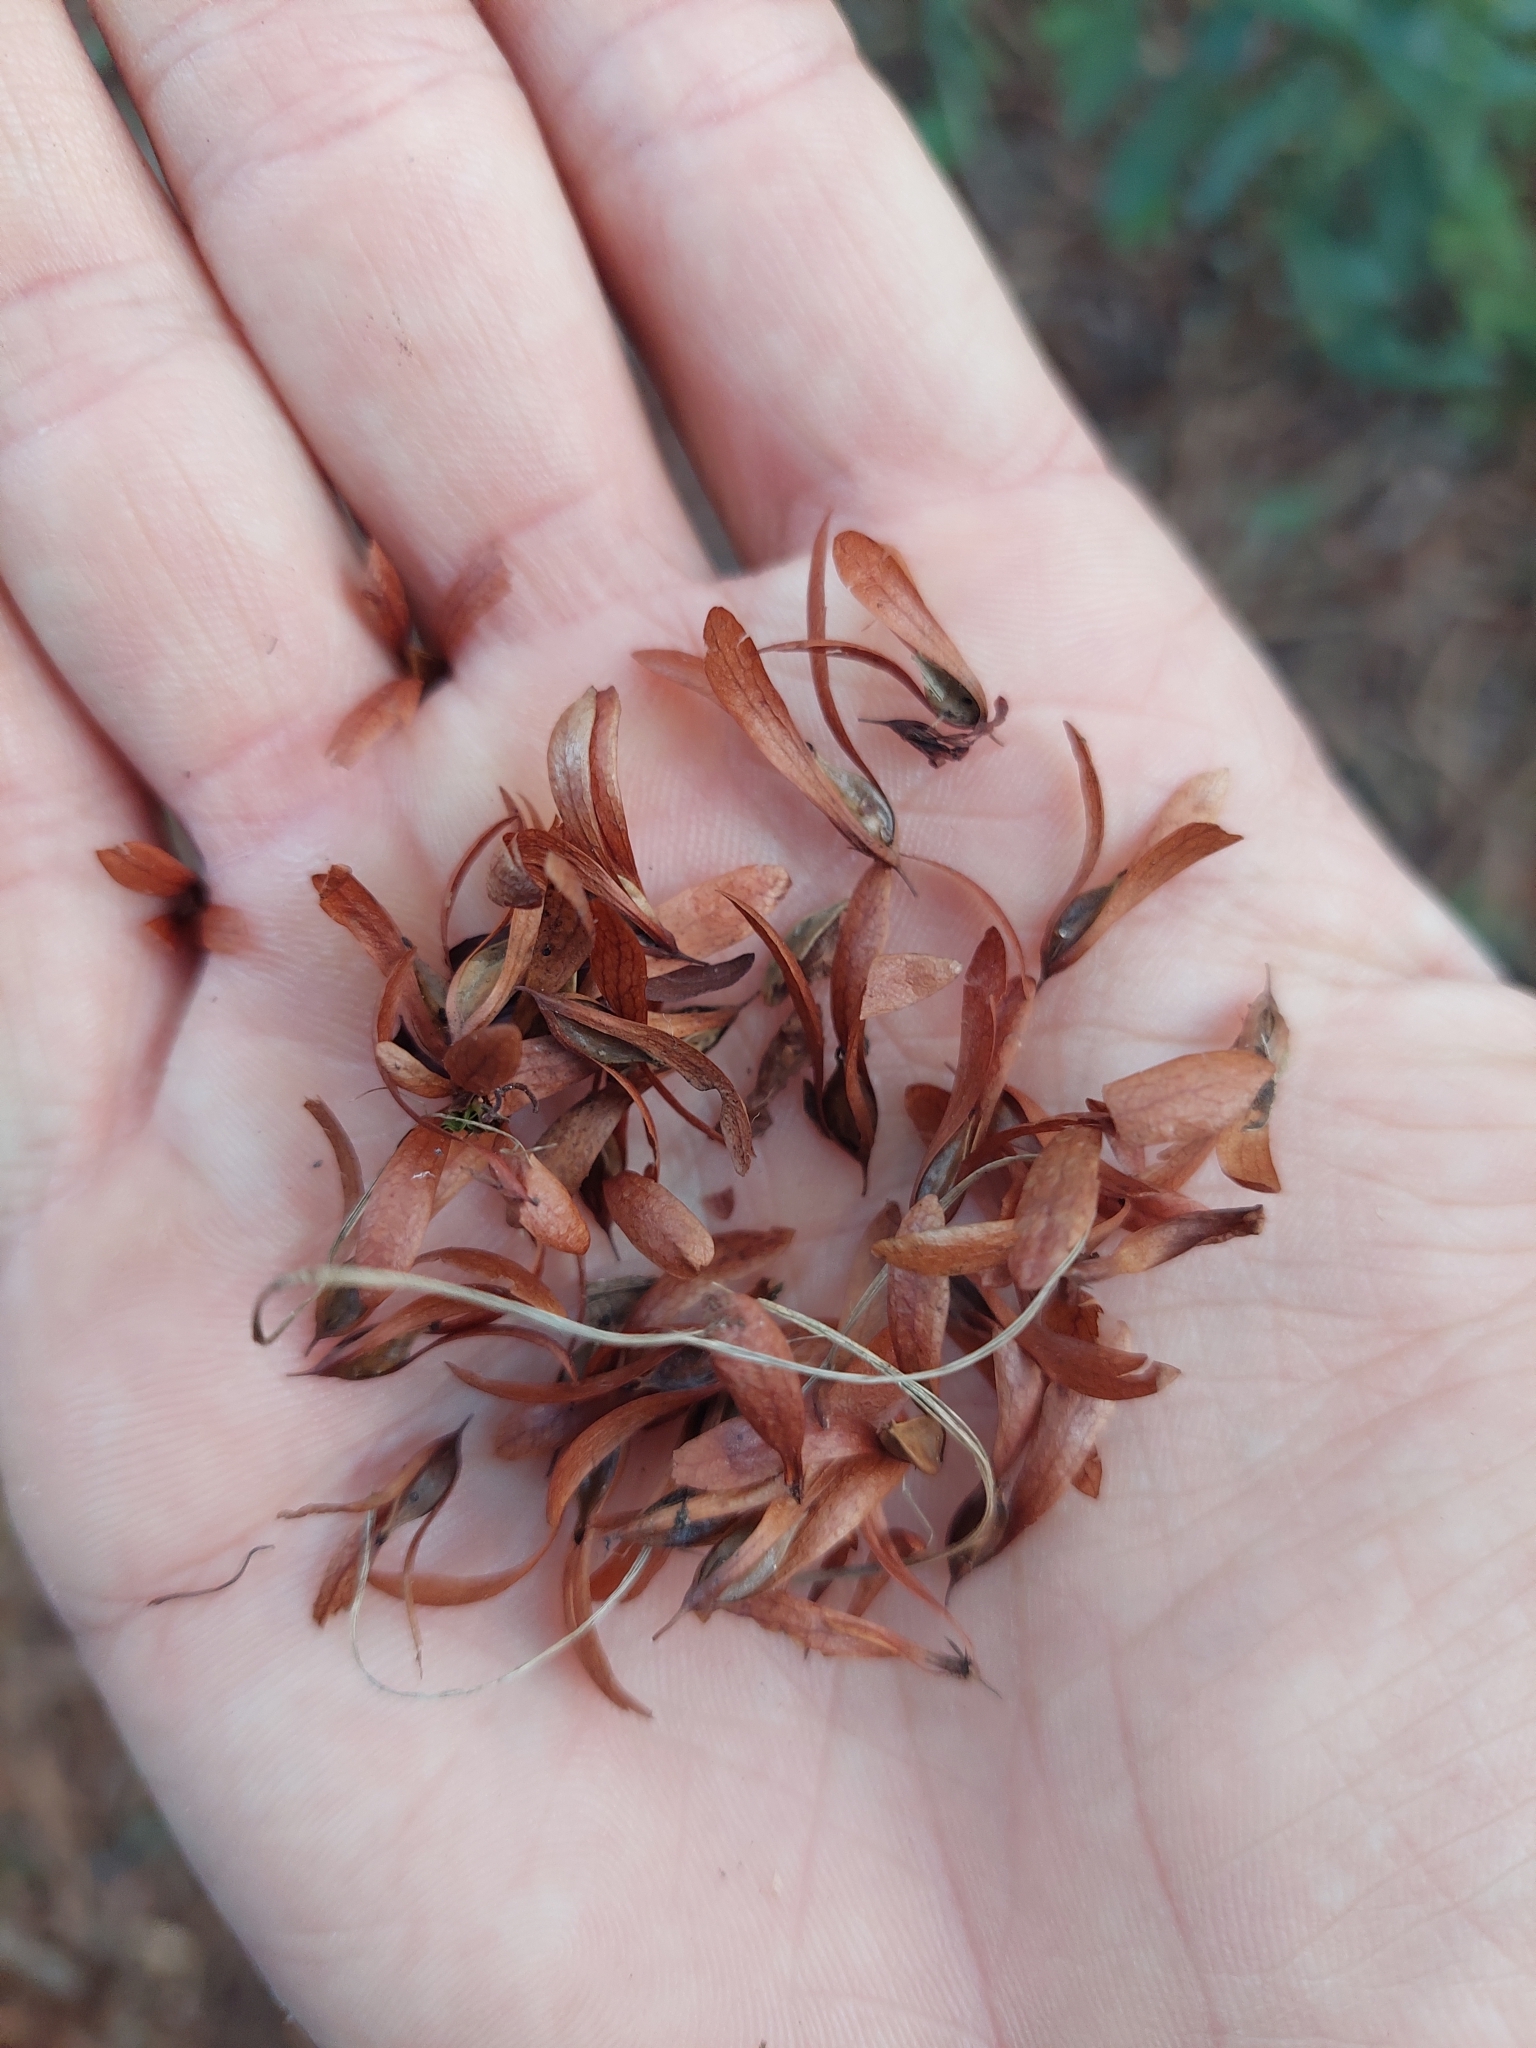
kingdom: Plantae
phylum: Tracheophyta
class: Magnoliopsida
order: Caryophyllales
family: Polygonaceae
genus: Ruprechtia
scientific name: Ruprechtia laxiflora
